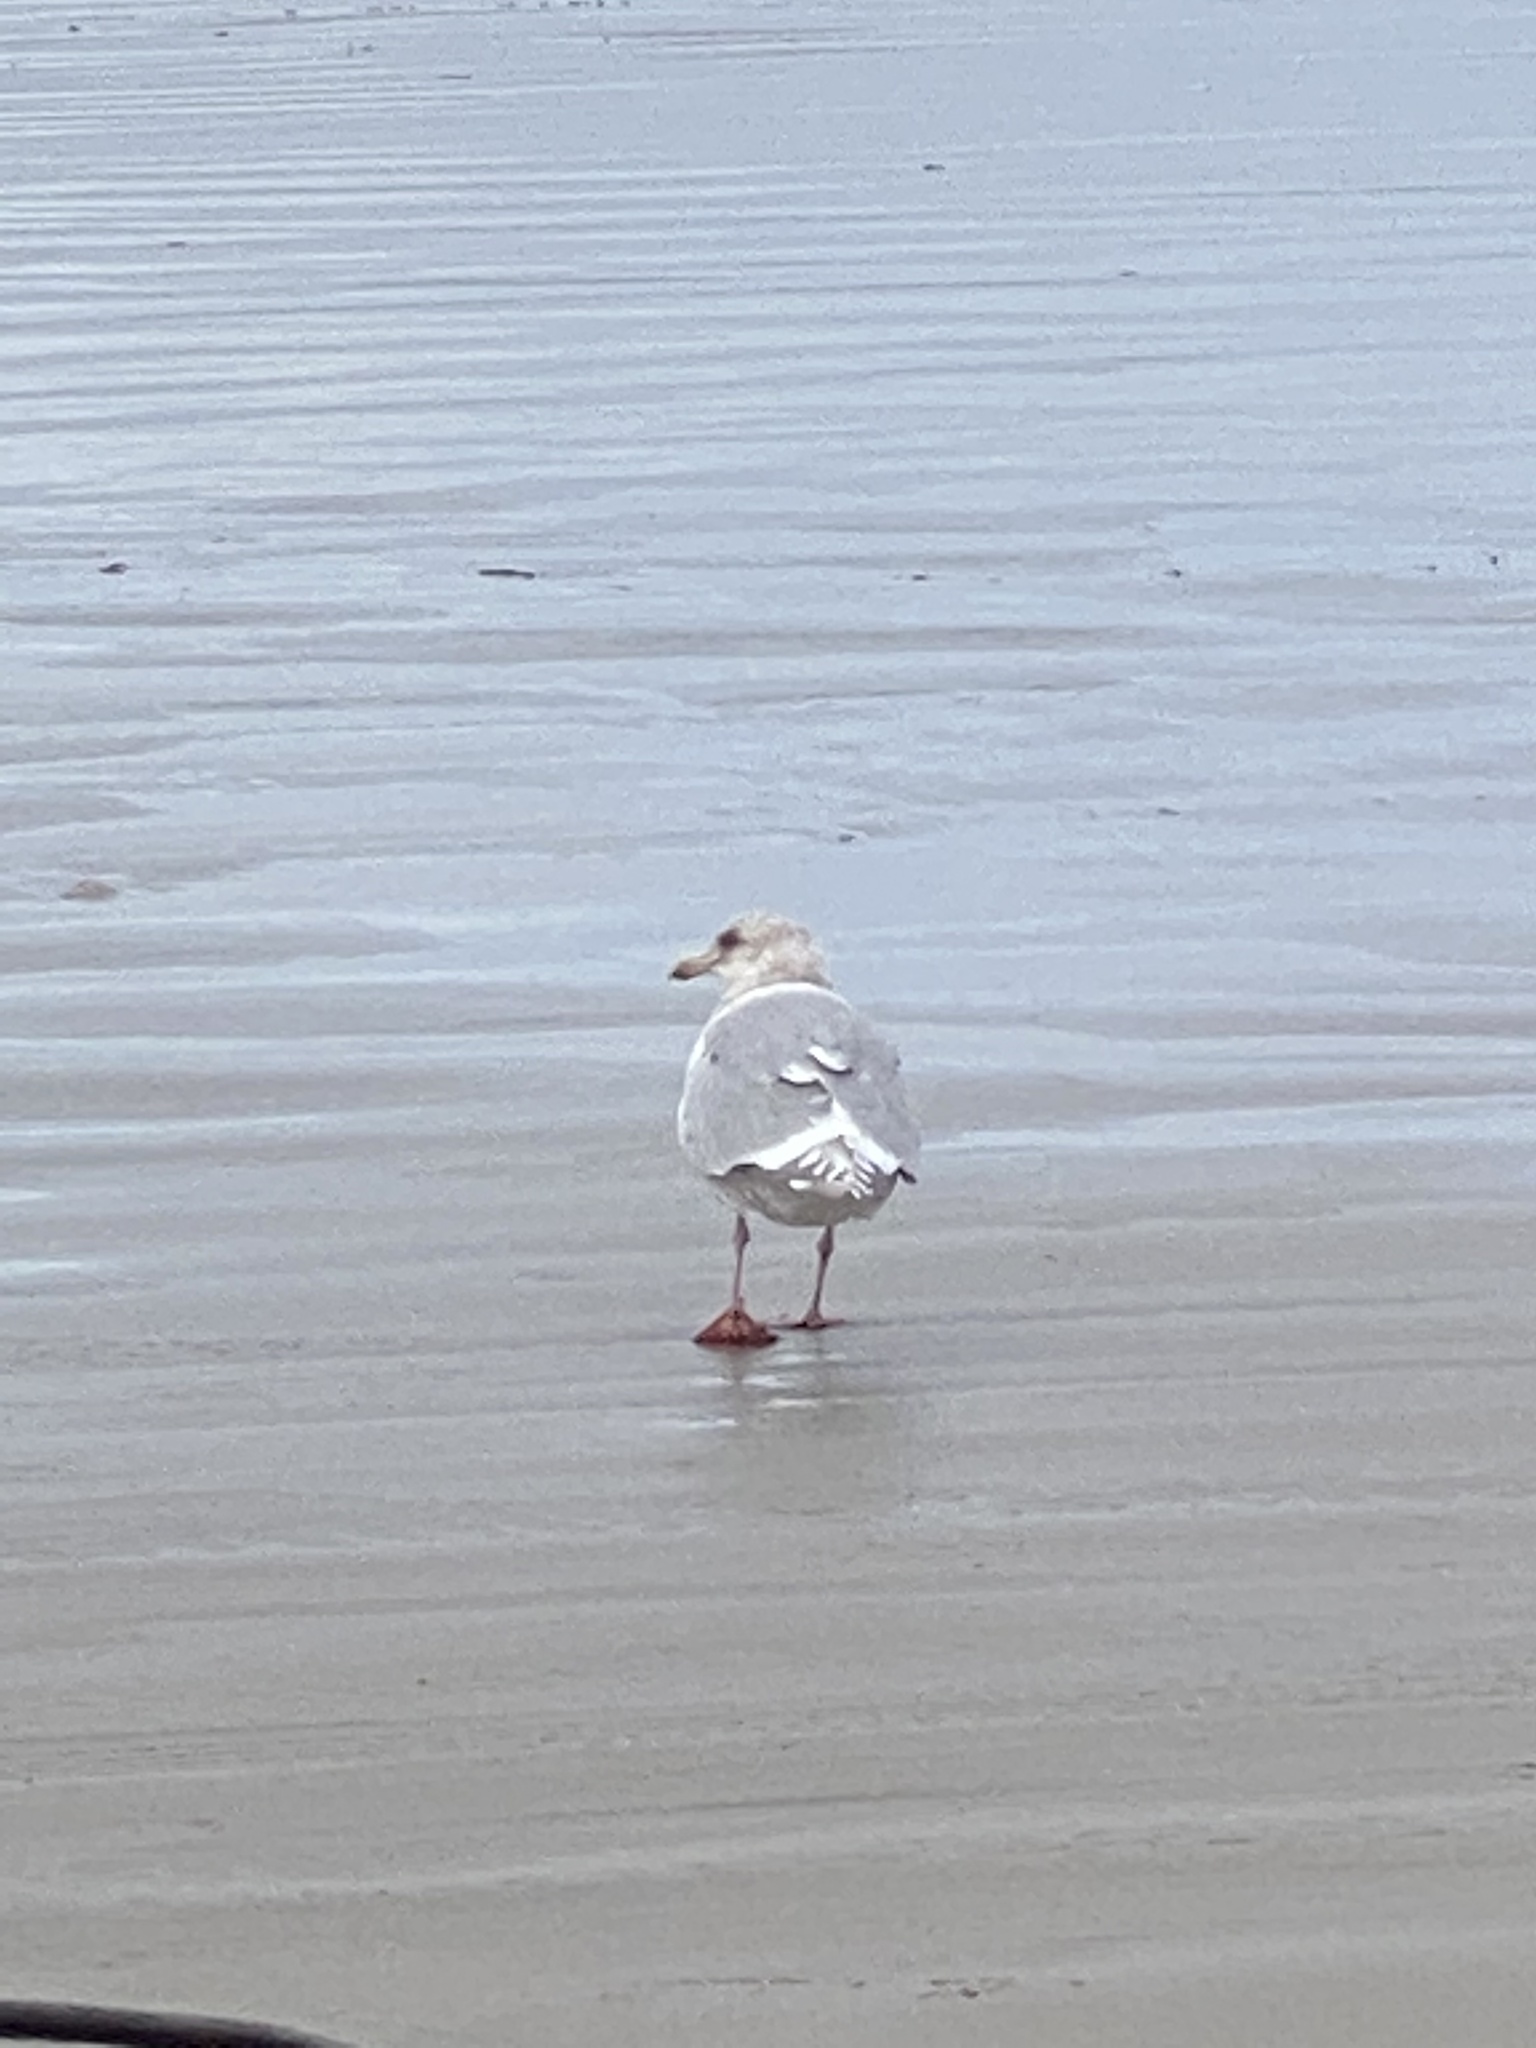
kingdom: Animalia
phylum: Chordata
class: Aves
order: Charadriiformes
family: Laridae
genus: Larus
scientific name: Larus glaucescens
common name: Glaucous-winged gull
